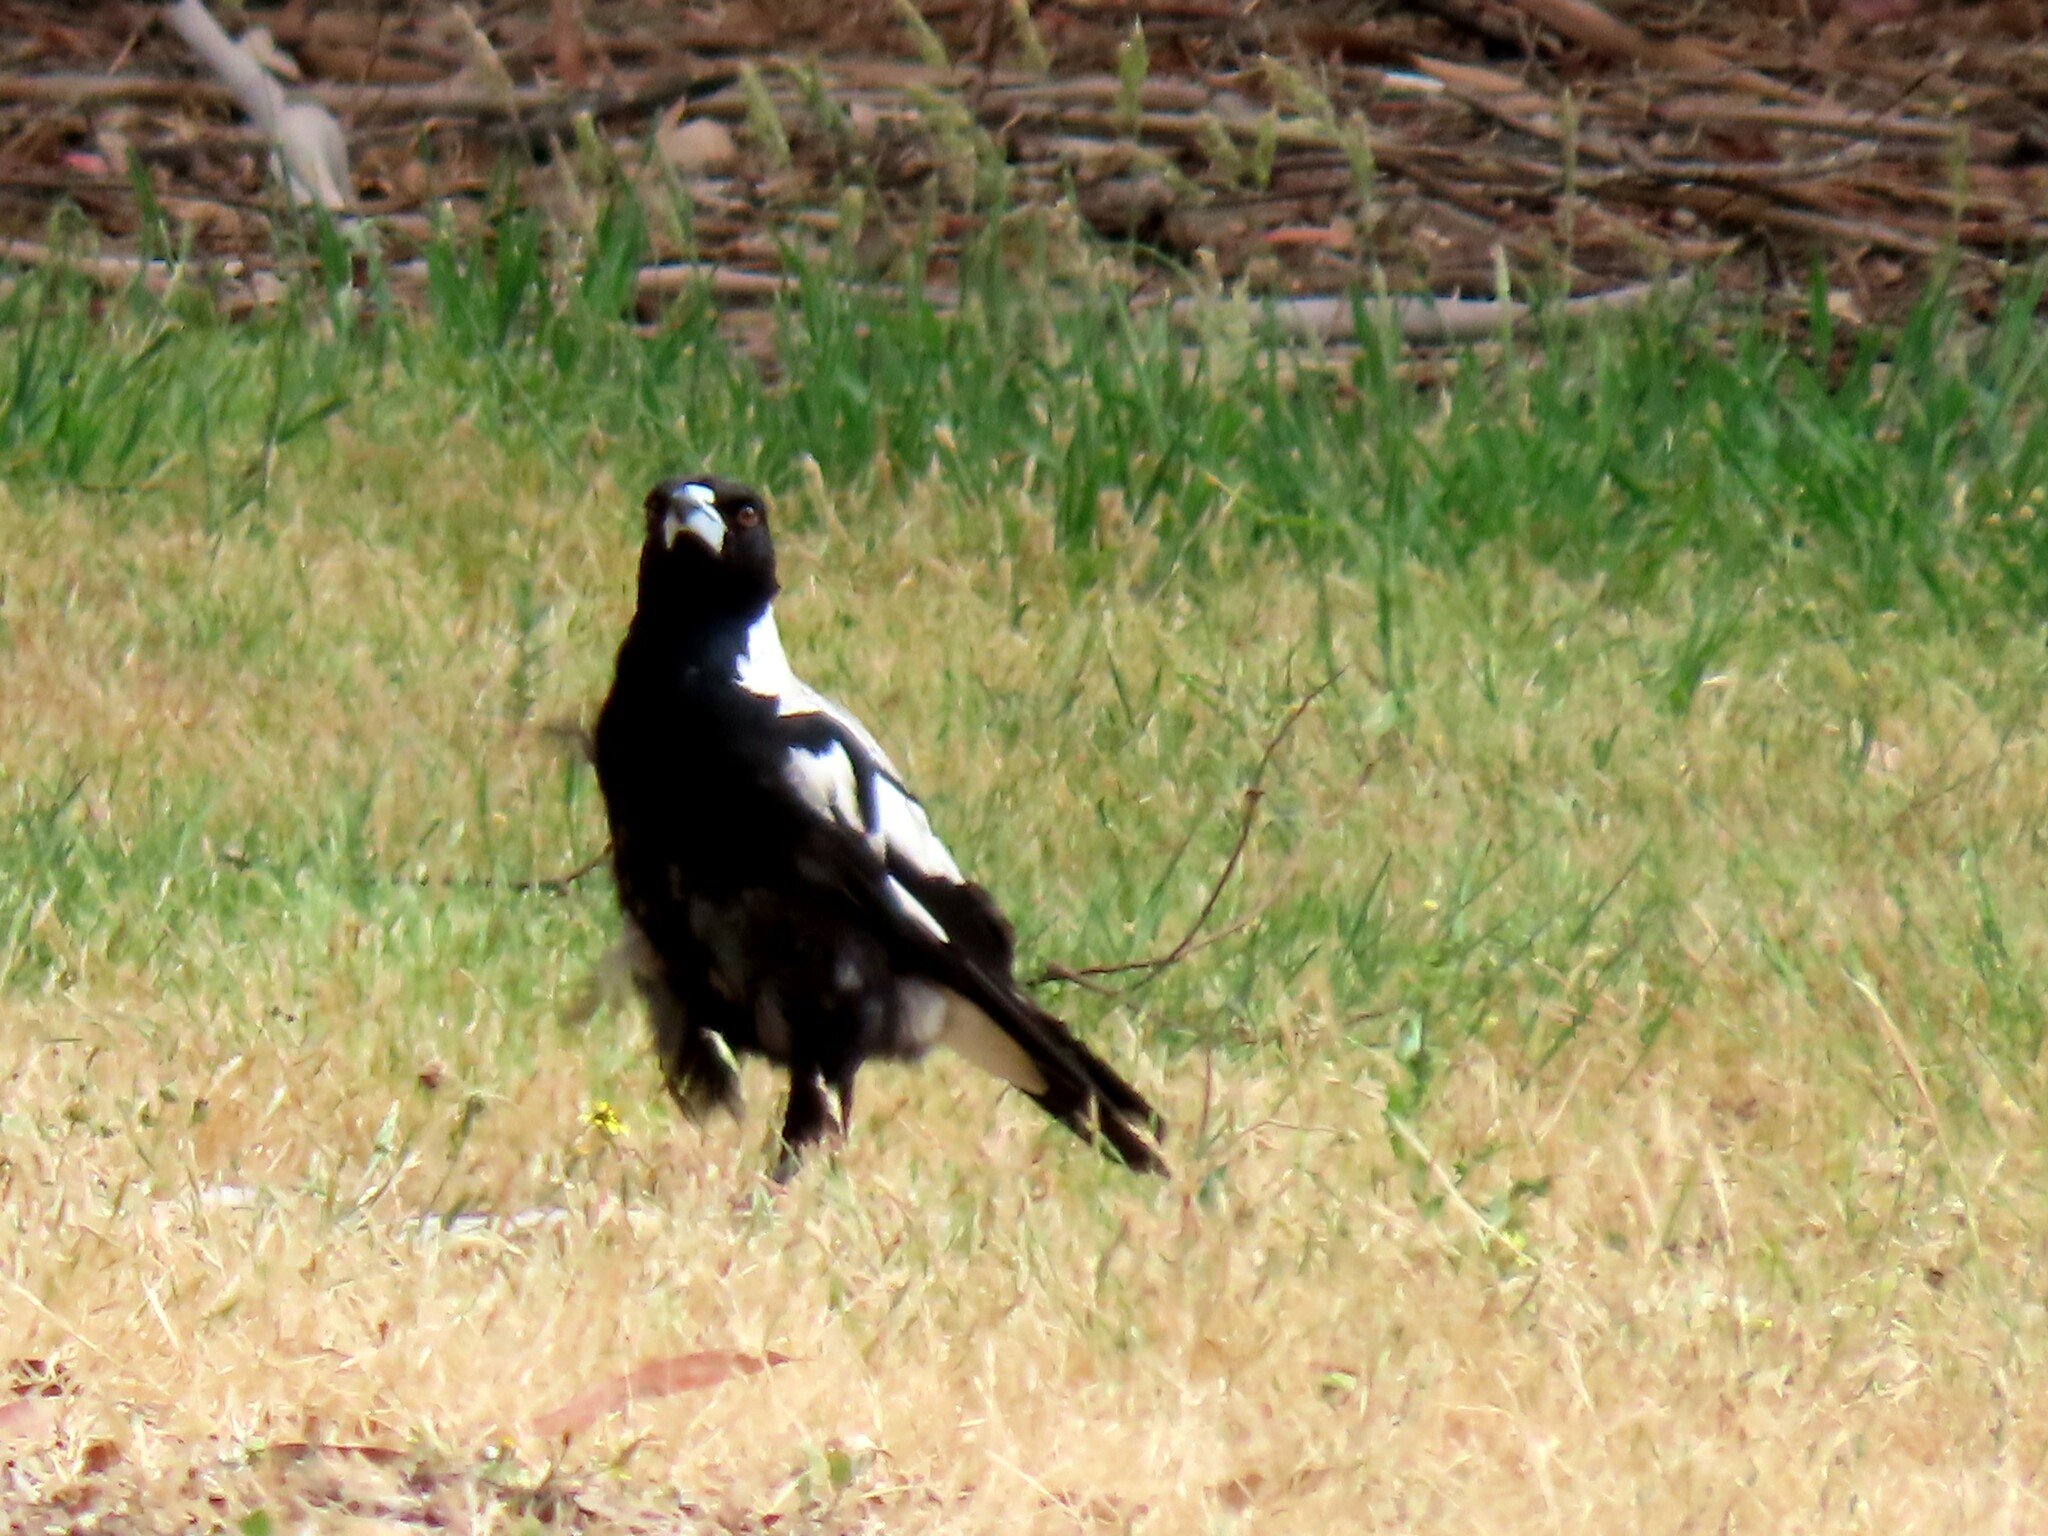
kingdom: Animalia
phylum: Chordata
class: Aves
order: Passeriformes
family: Cracticidae
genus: Gymnorhina
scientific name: Gymnorhina tibicen
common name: Australian magpie
